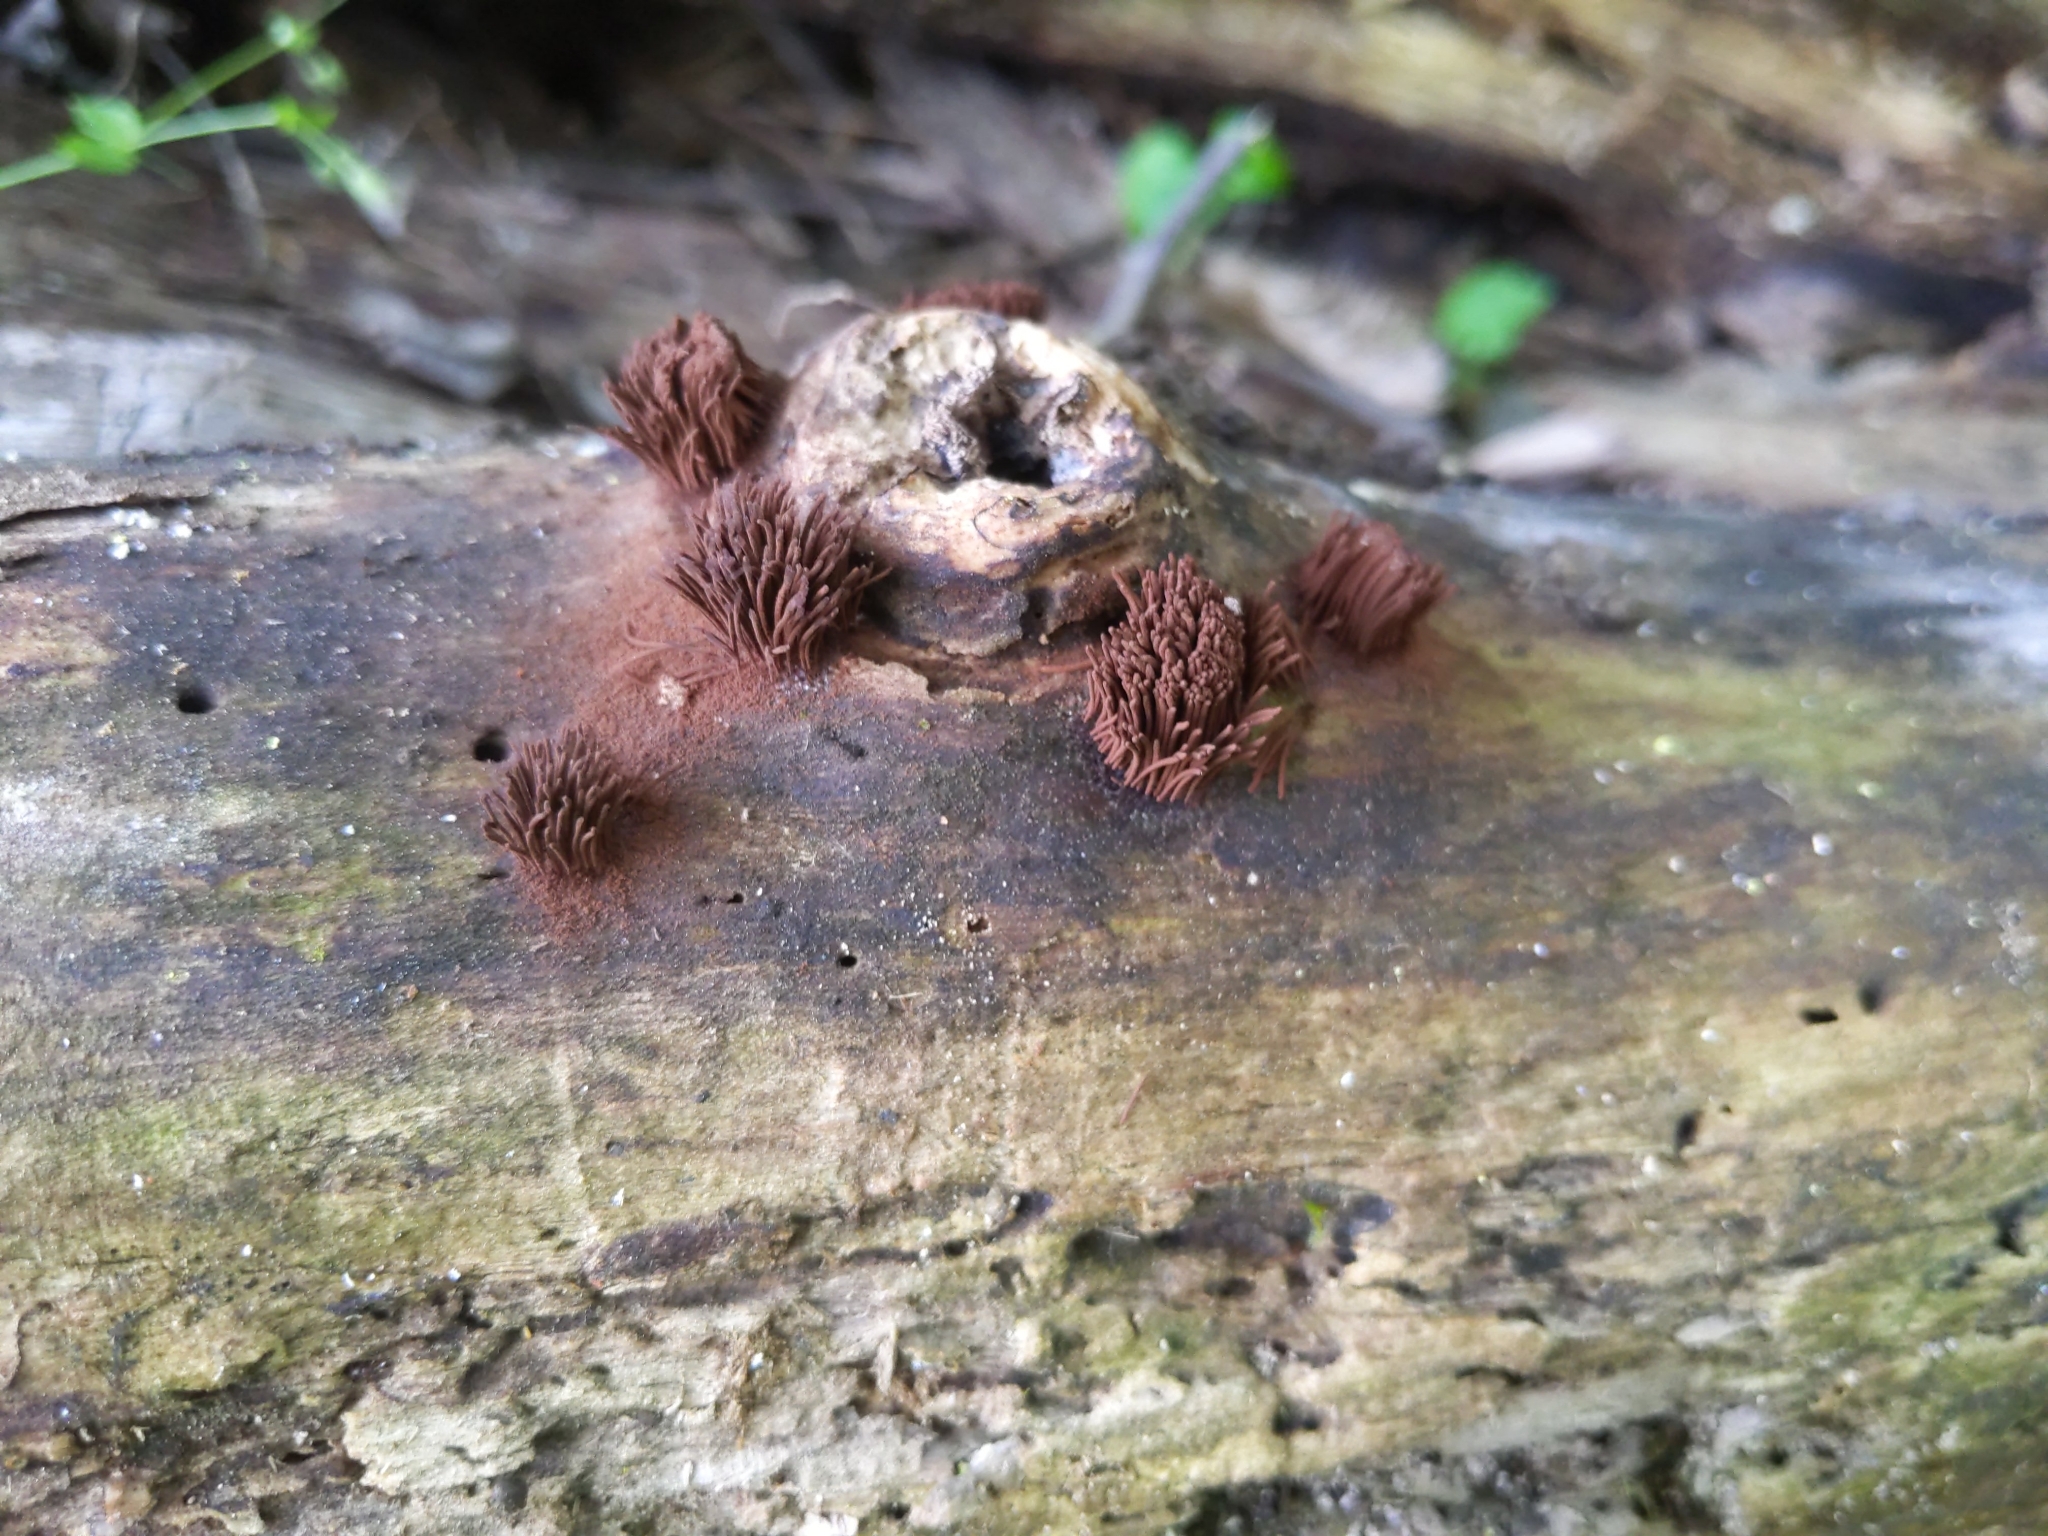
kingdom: Protozoa
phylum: Mycetozoa
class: Myxomycetes
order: Stemonitidales
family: Stemonitidaceae
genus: Stemonitis
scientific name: Stemonitis splendens
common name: Chocolate tube slime
